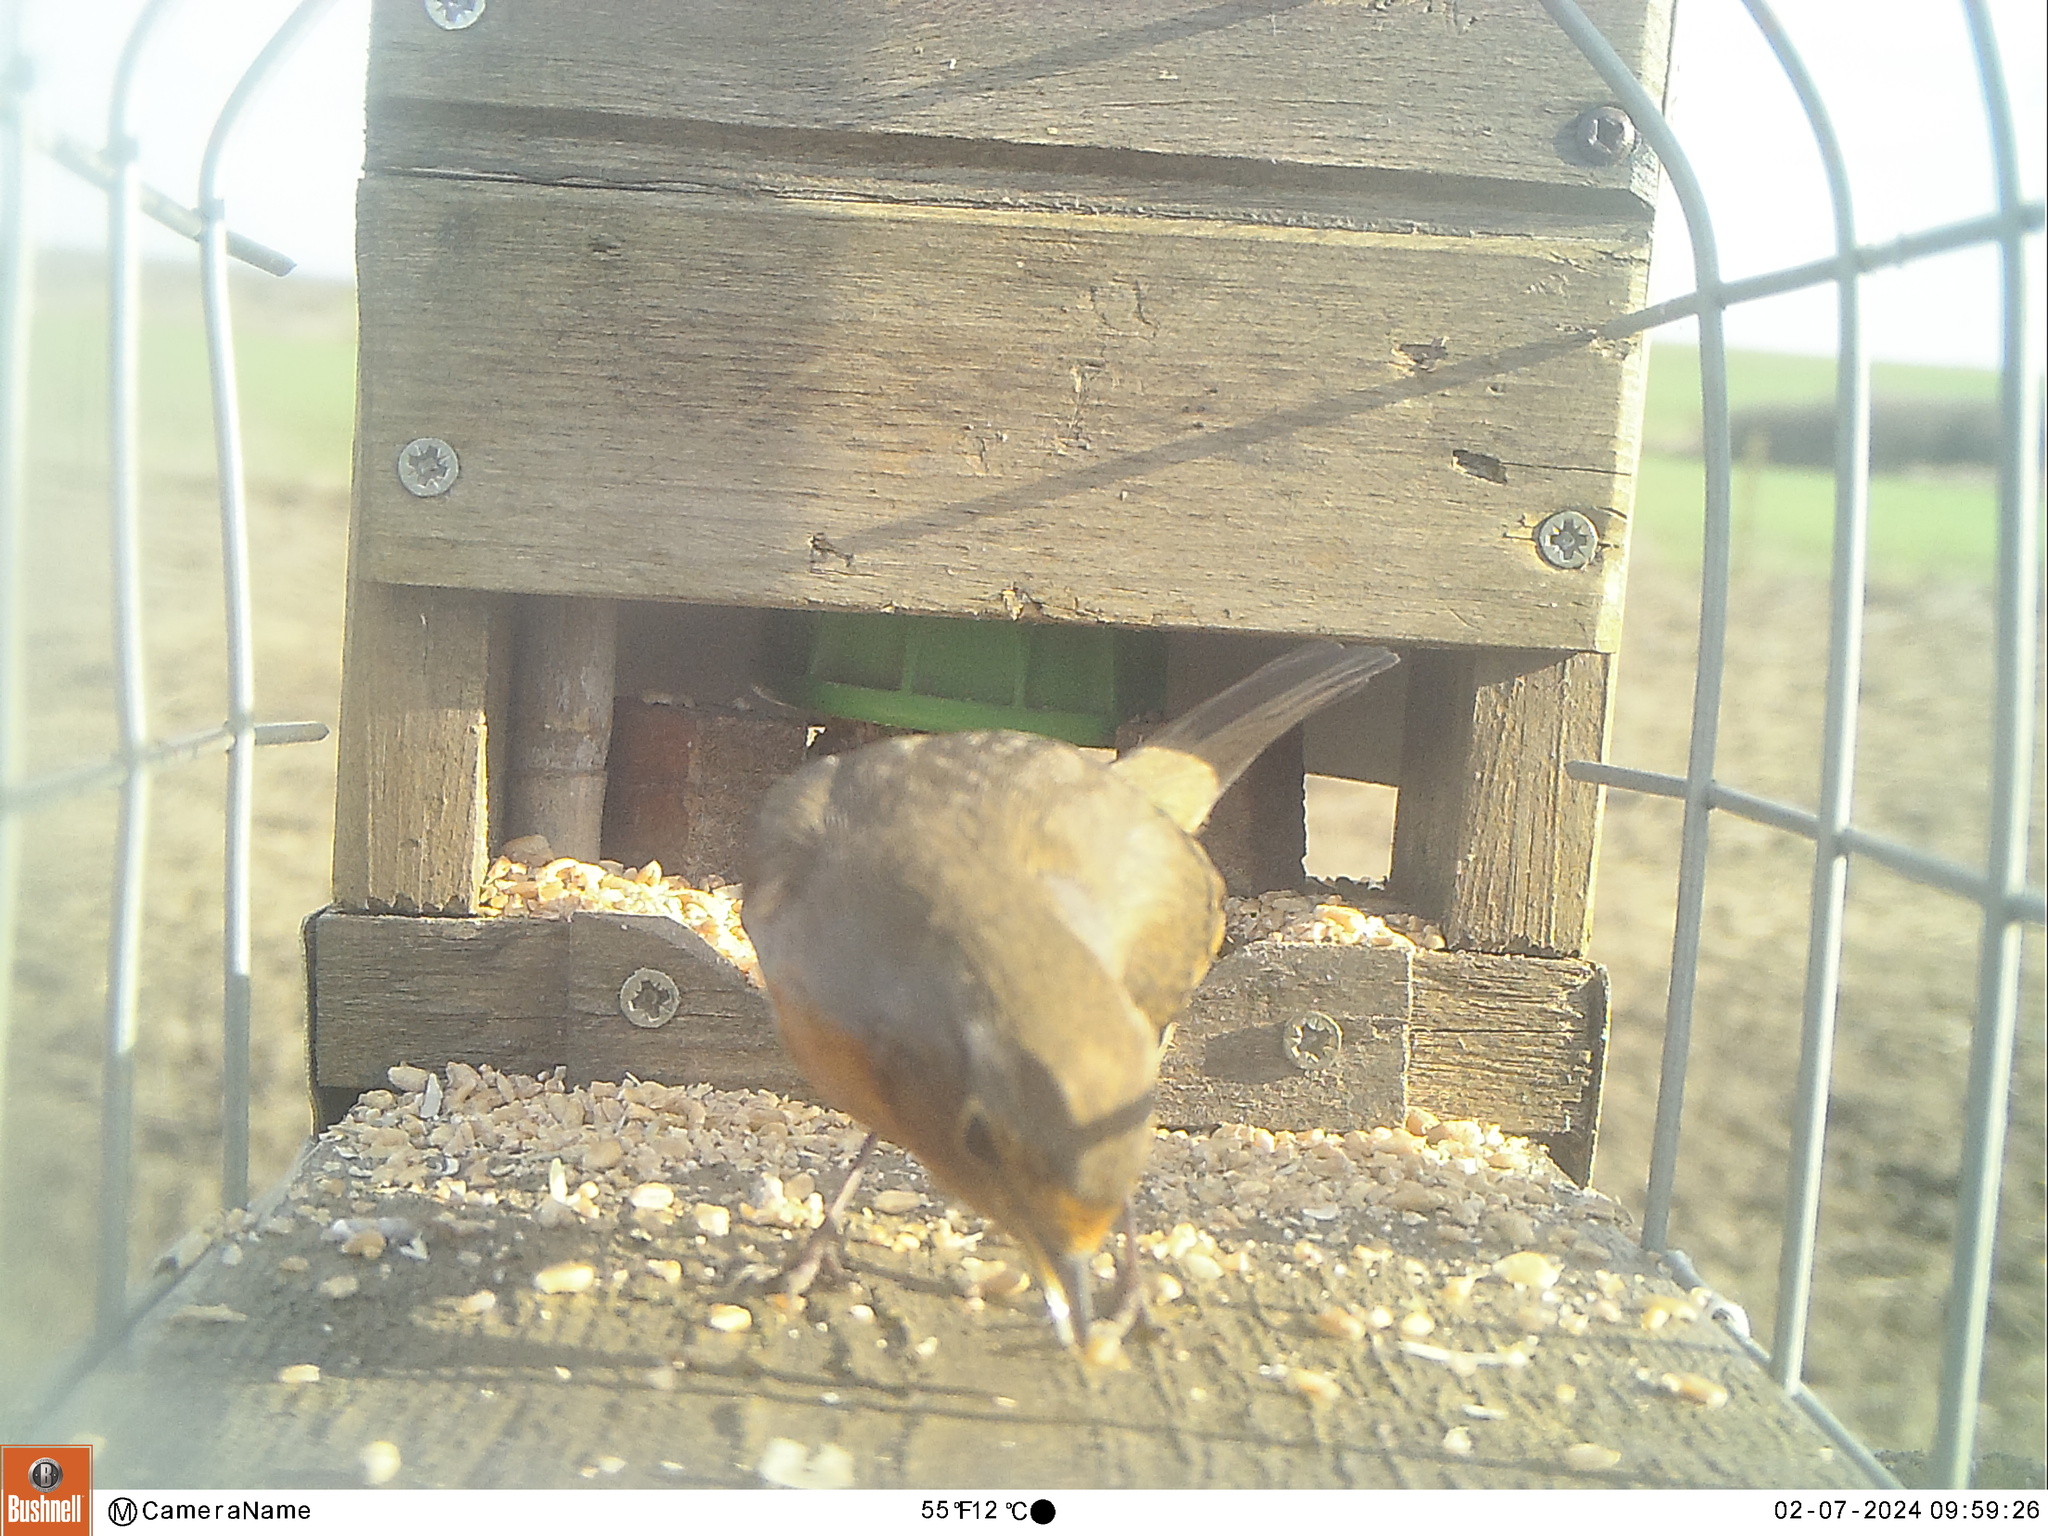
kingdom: Animalia
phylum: Chordata
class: Aves
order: Passeriformes
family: Muscicapidae
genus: Erithacus
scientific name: Erithacus rubecula
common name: European robin
